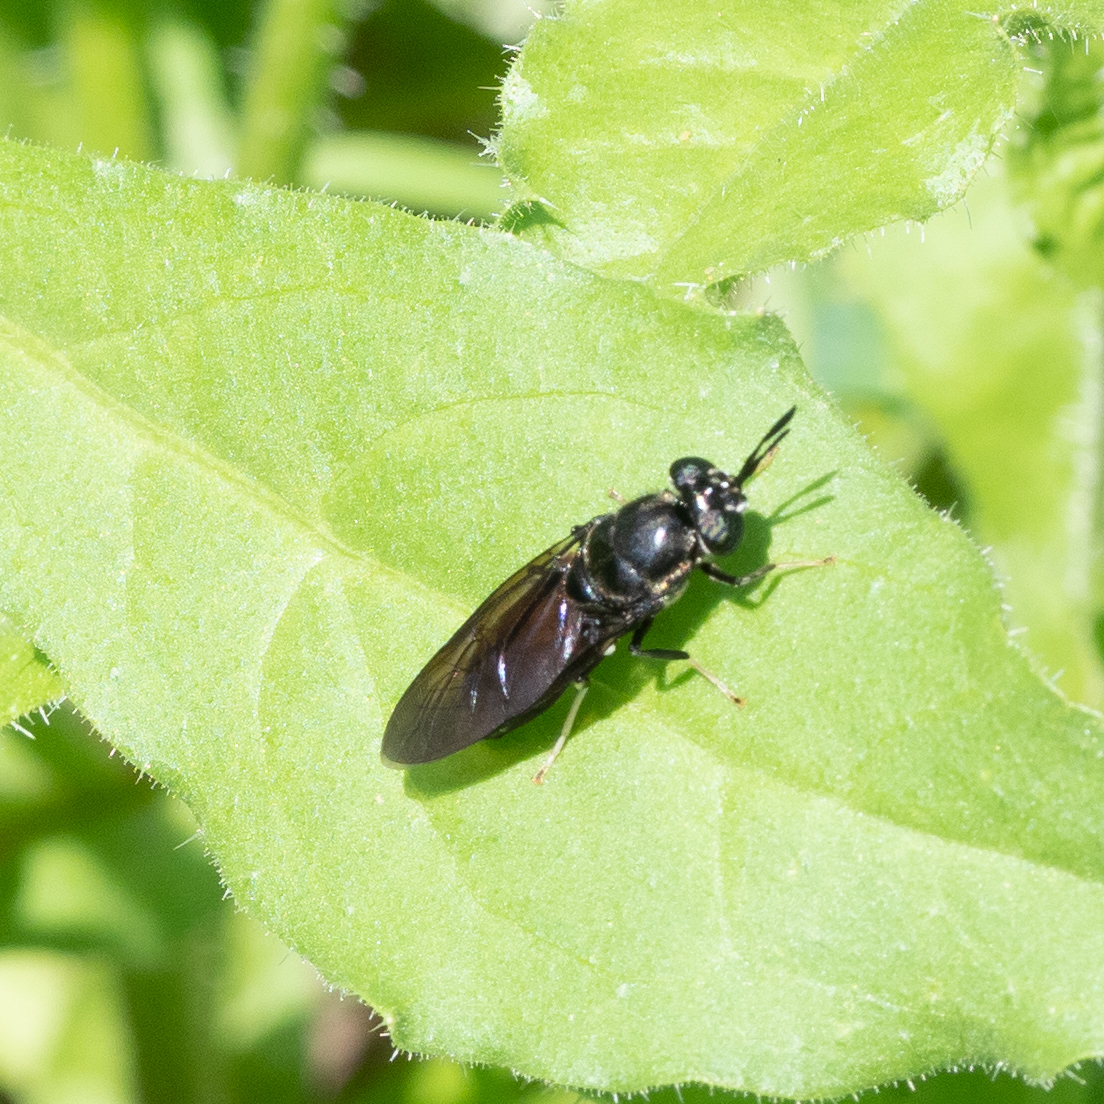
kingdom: Animalia
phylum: Arthropoda
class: Insecta
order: Diptera
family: Stratiomyidae
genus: Hermetia
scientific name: Hermetia illucens
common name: Black soldier fly
